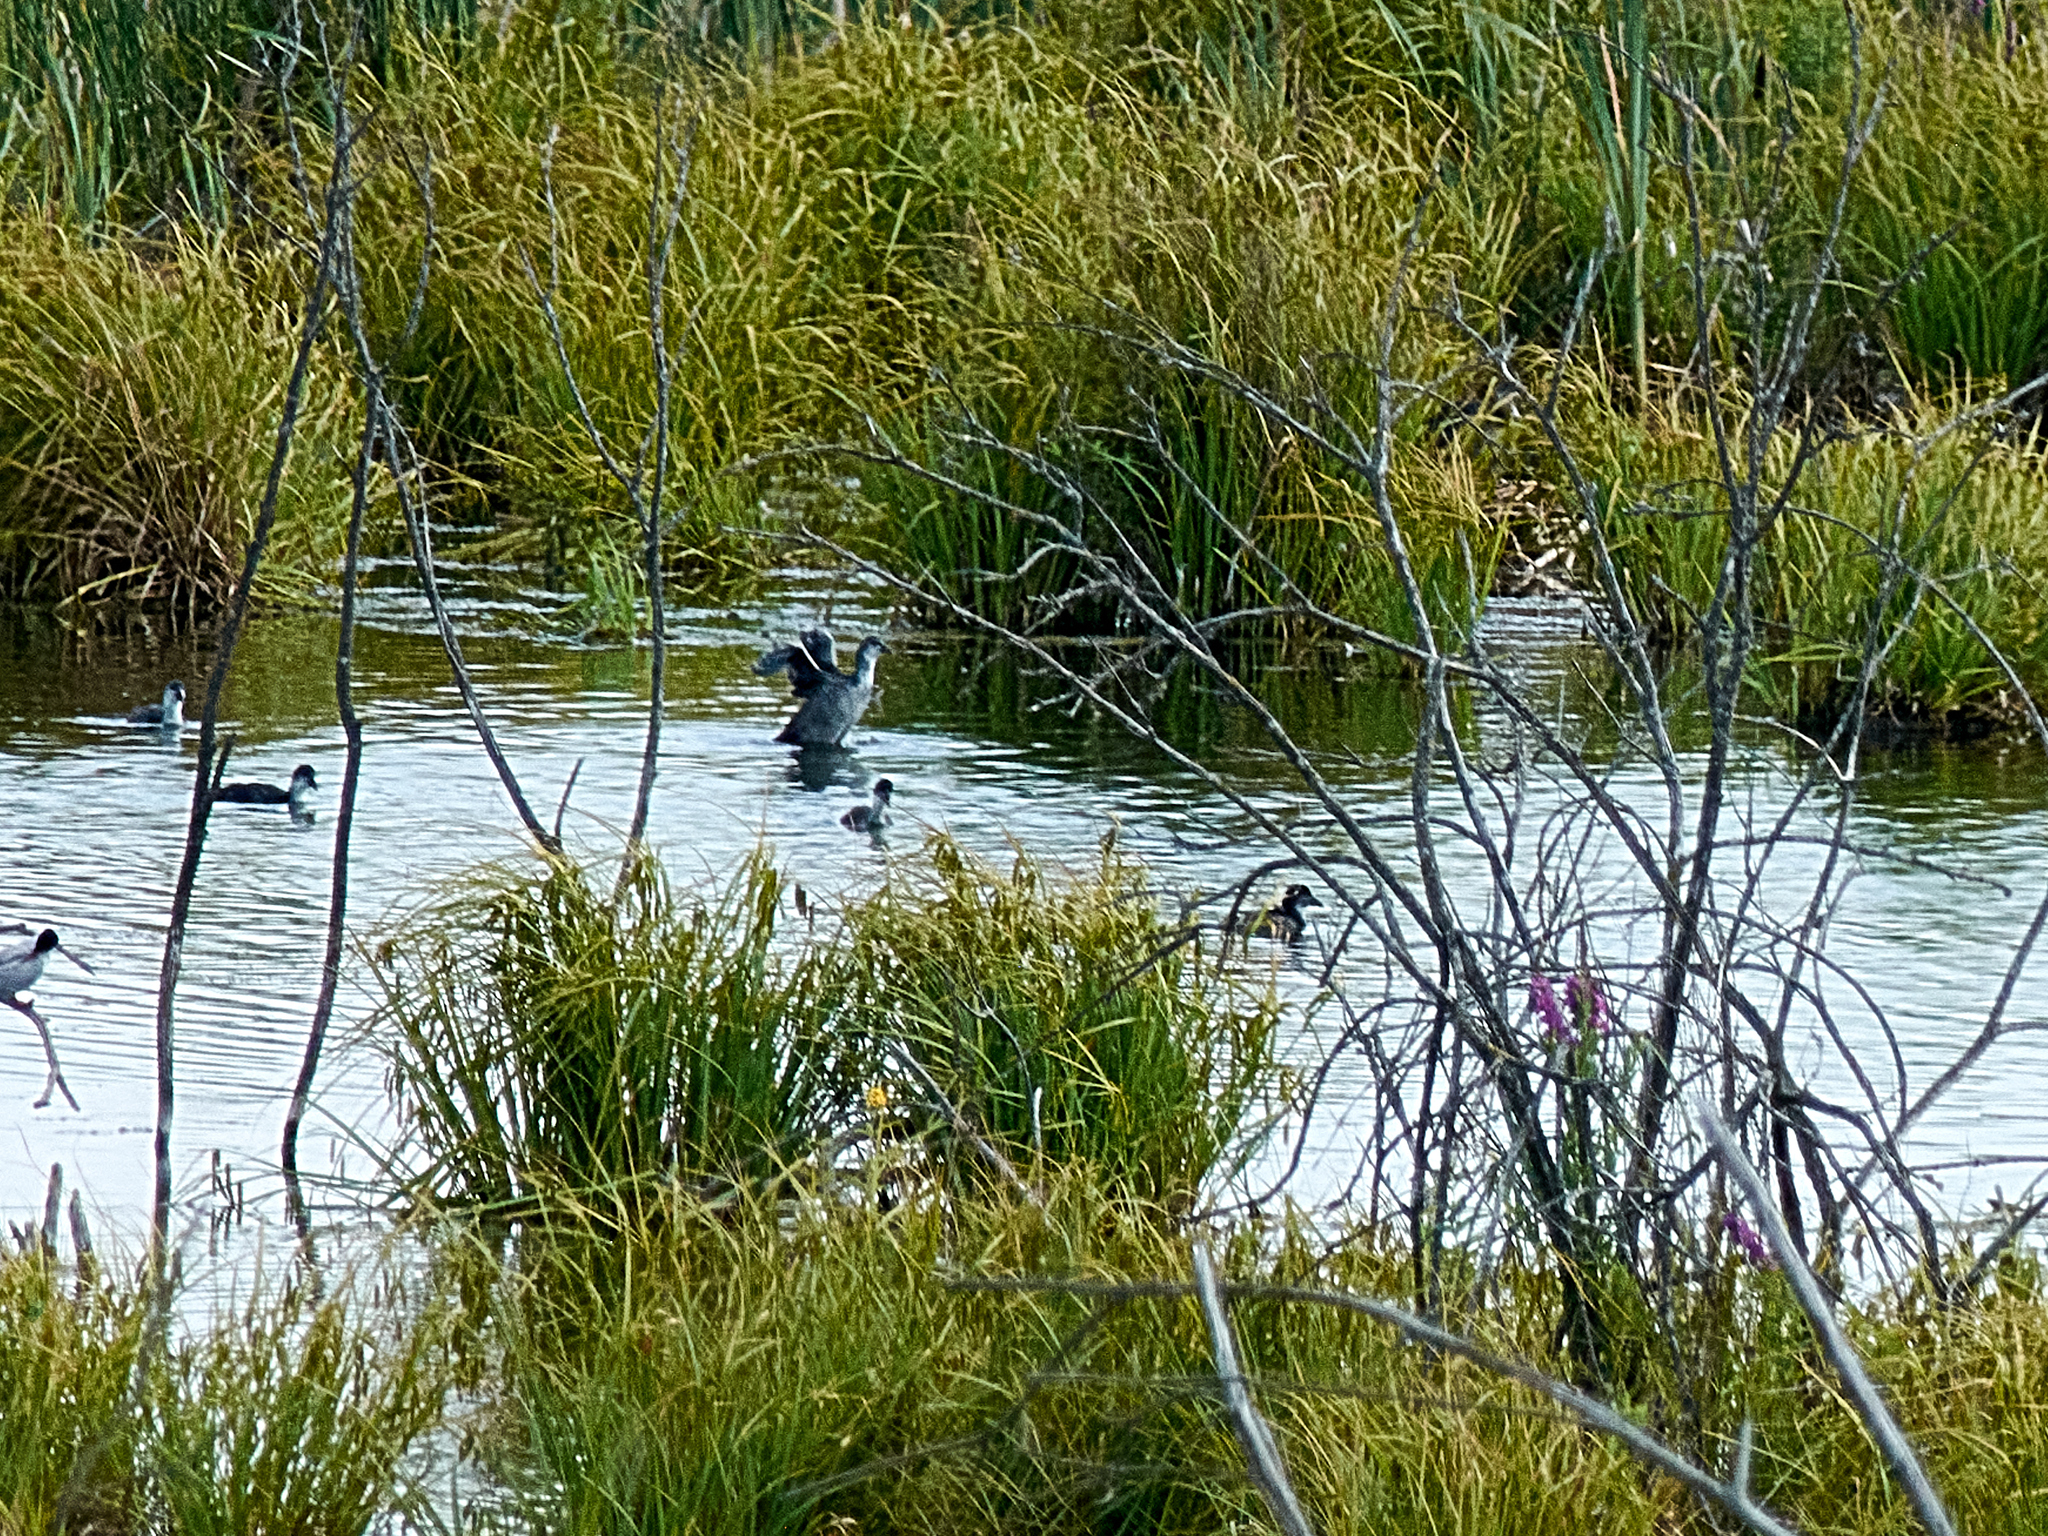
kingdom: Animalia
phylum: Chordata
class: Aves
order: Gruiformes
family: Rallidae
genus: Fulica
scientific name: Fulica atra
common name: Eurasian coot
